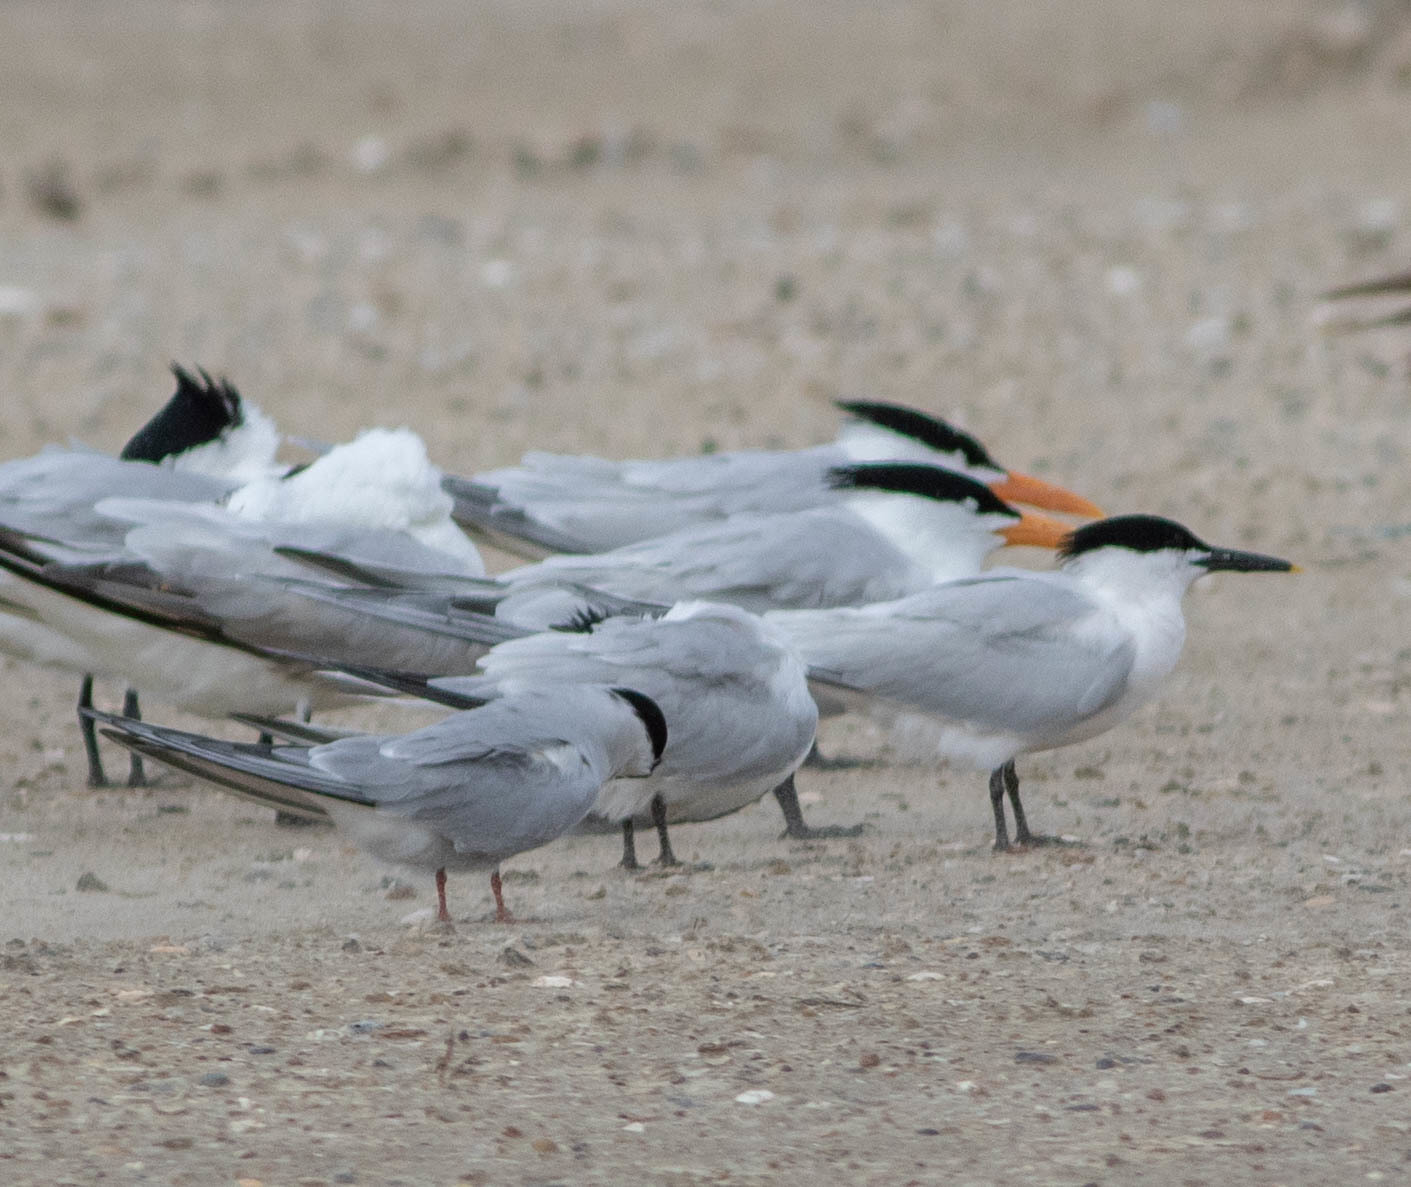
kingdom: Animalia
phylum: Chordata
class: Aves
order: Charadriiformes
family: Laridae
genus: Thalasseus
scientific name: Thalasseus sandvicensis
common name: Sandwich tern
